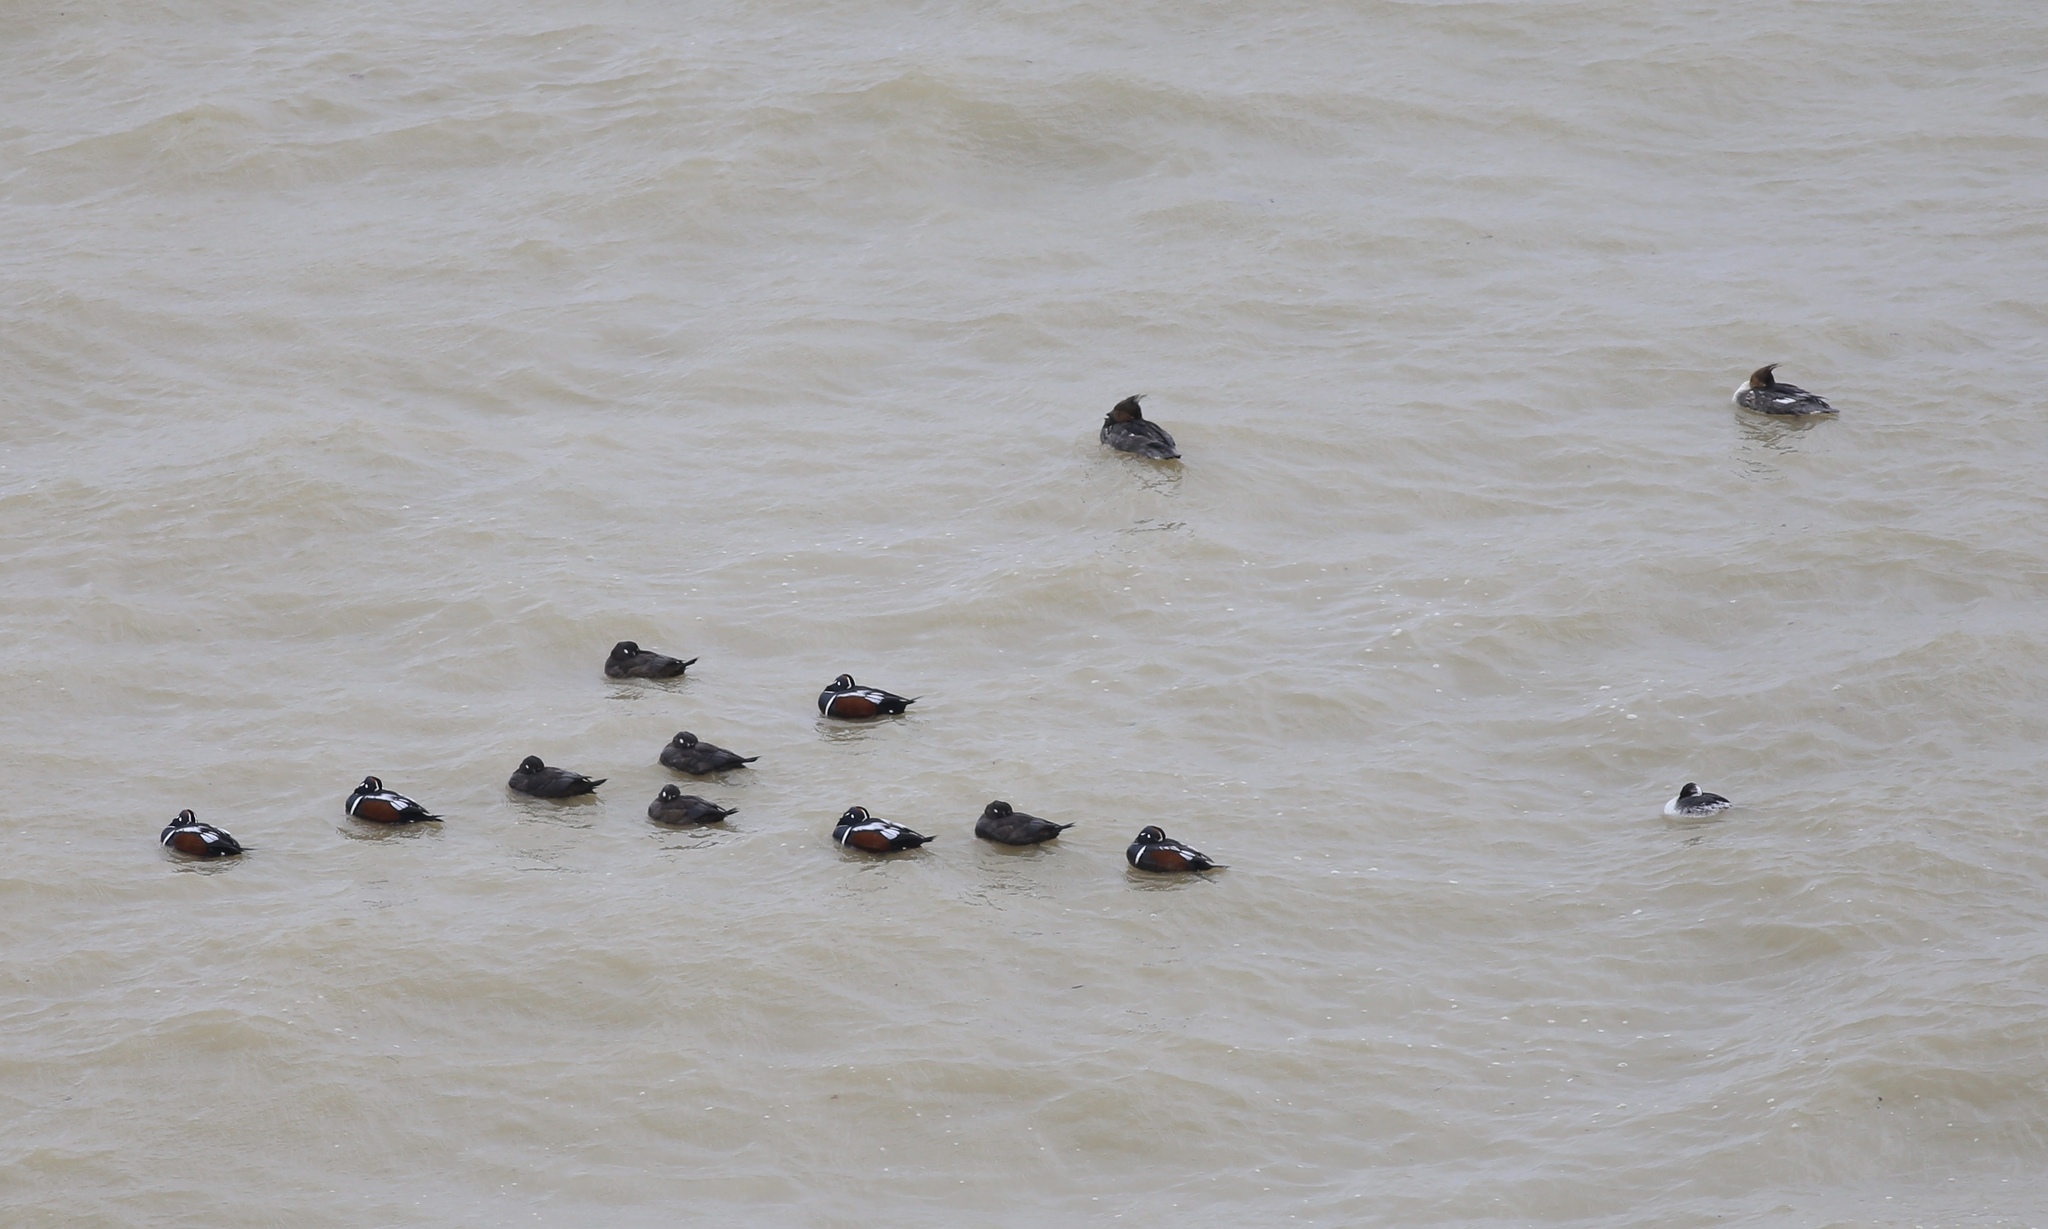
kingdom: Animalia
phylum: Chordata
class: Aves
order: Podicipediformes
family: Podicipedidae
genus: Podiceps
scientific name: Podiceps auritus
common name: Horned grebe
